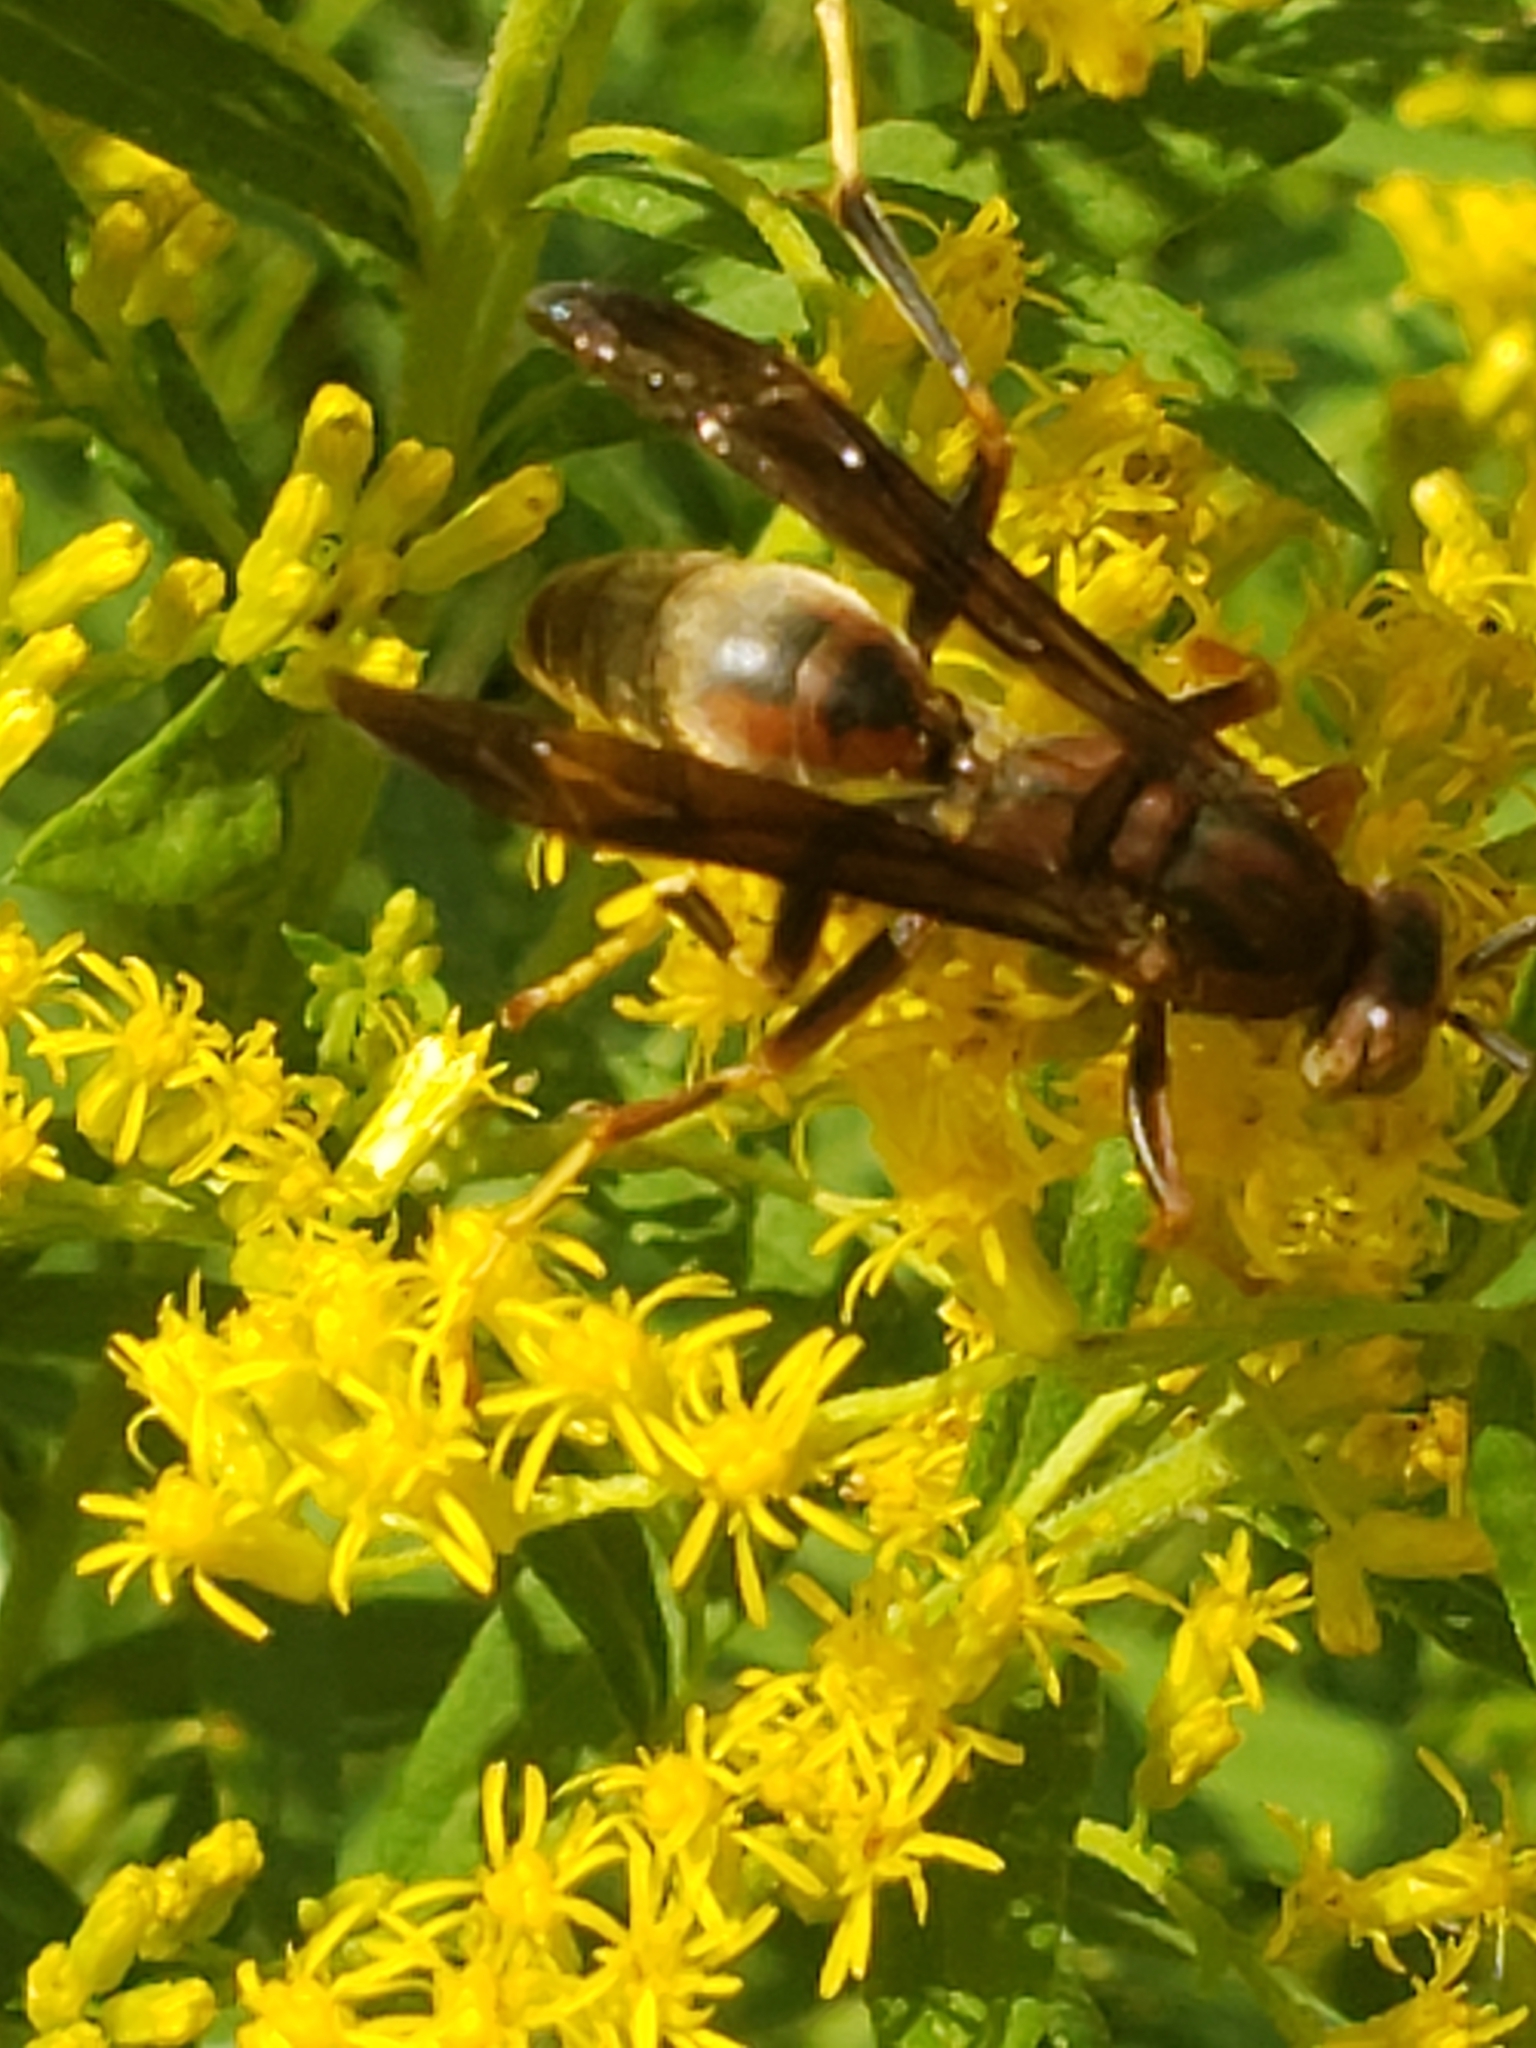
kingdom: Animalia
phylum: Arthropoda
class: Insecta
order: Hymenoptera
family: Eumenidae
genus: Polistes
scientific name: Polistes metricus
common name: Metric paper wasp
